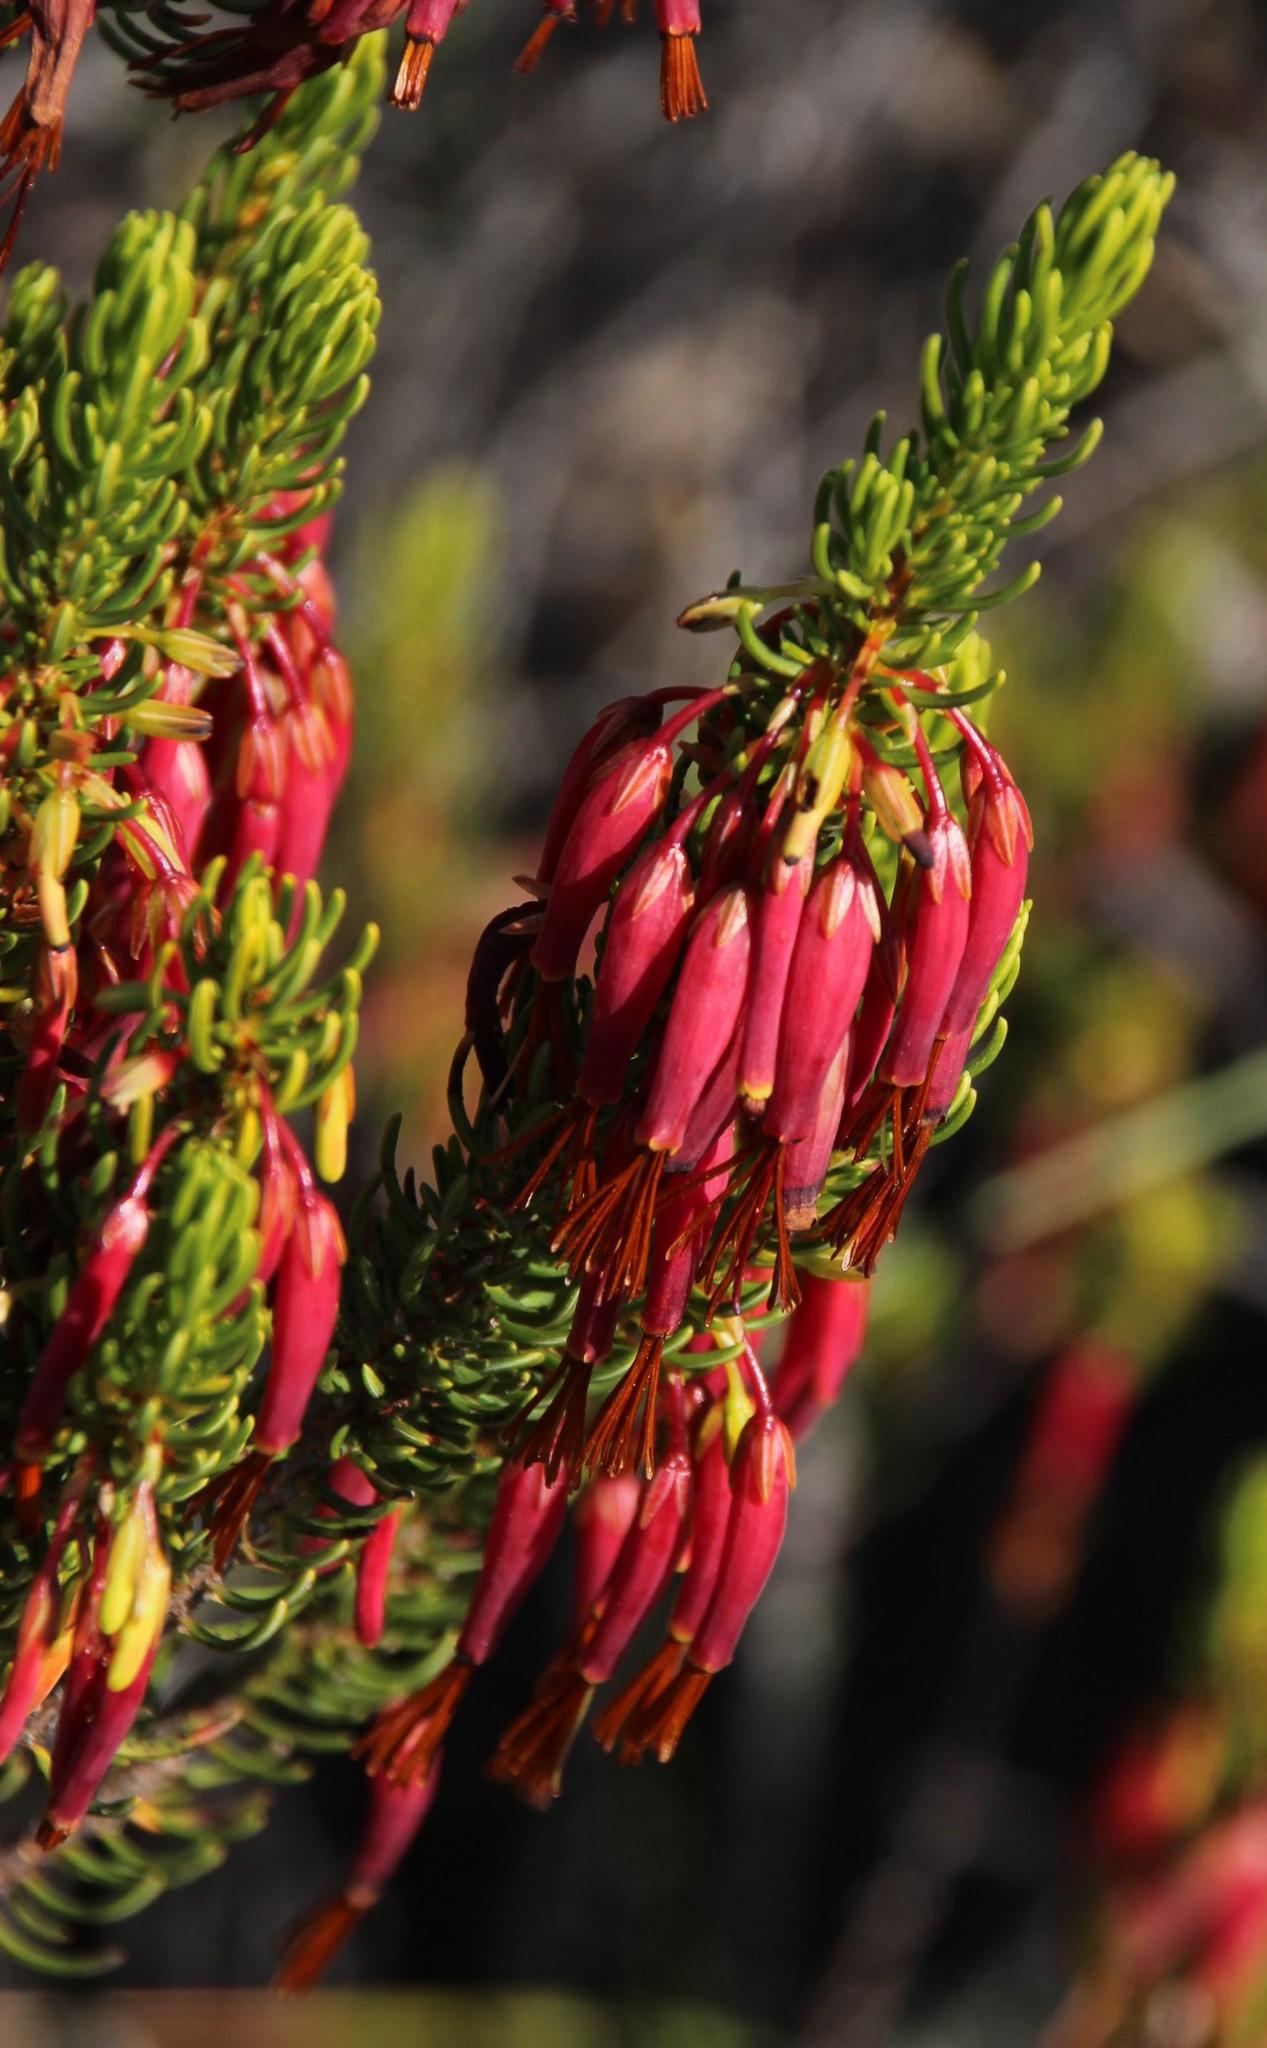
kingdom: Plantae
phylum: Tracheophyta
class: Magnoliopsida
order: Ericales
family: Ericaceae
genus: Erica
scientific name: Erica plukenetii
